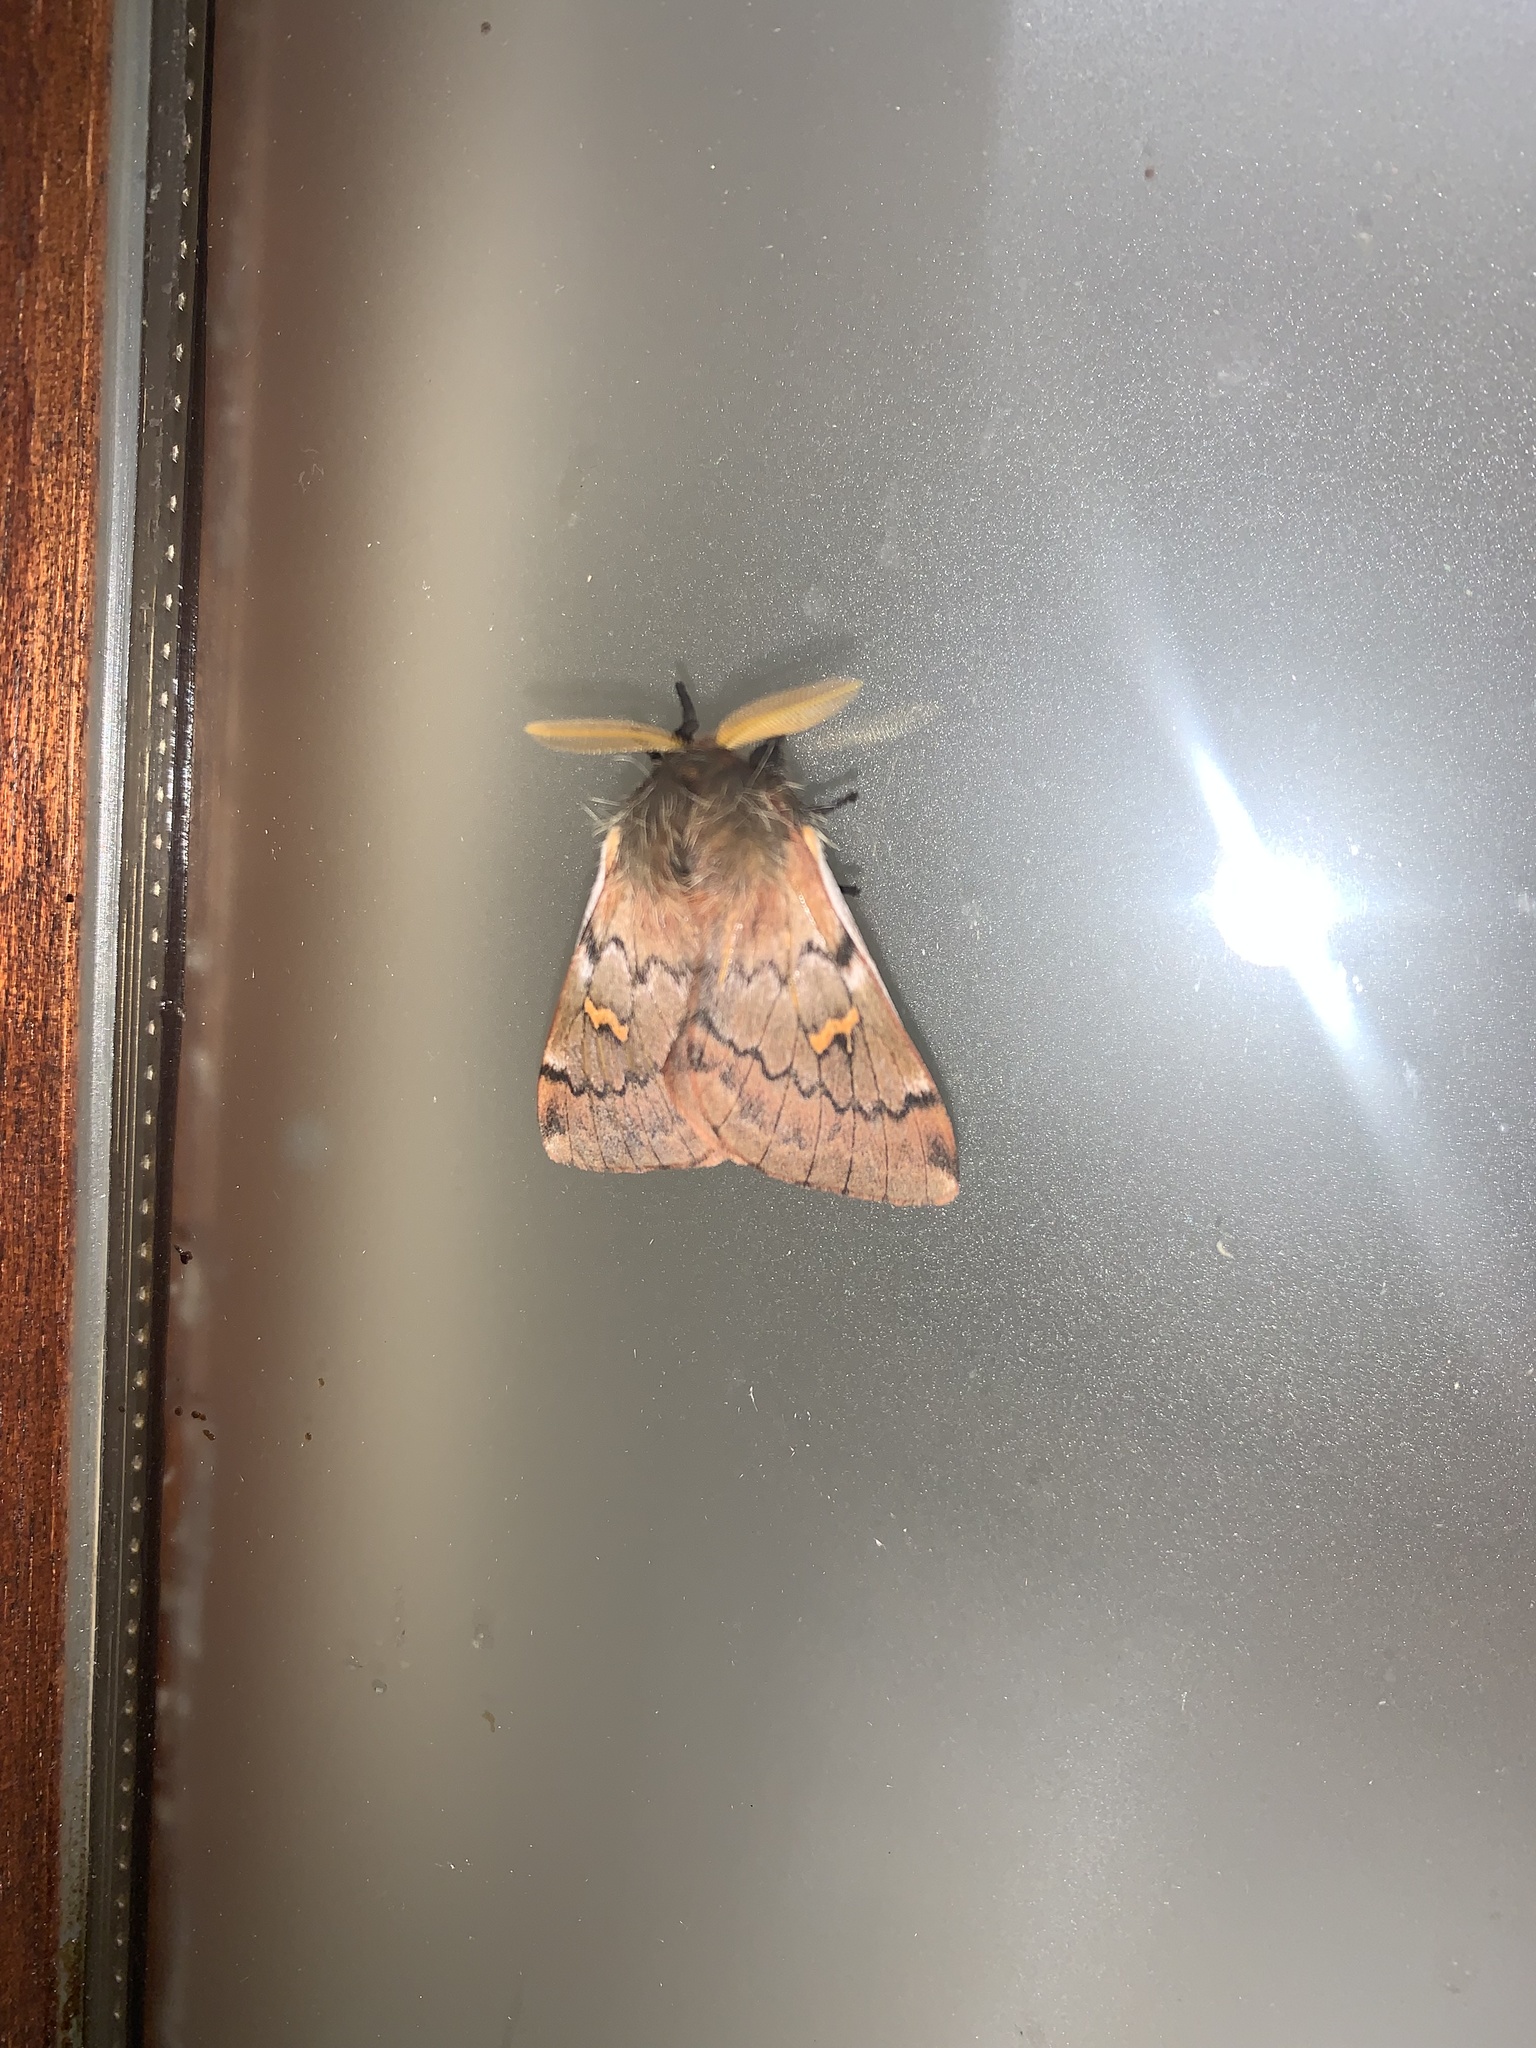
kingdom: Animalia
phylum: Arthropoda
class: Insecta
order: Lepidoptera
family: Saturniidae
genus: Ormiscodes
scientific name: Ormiscodes joiceyi
